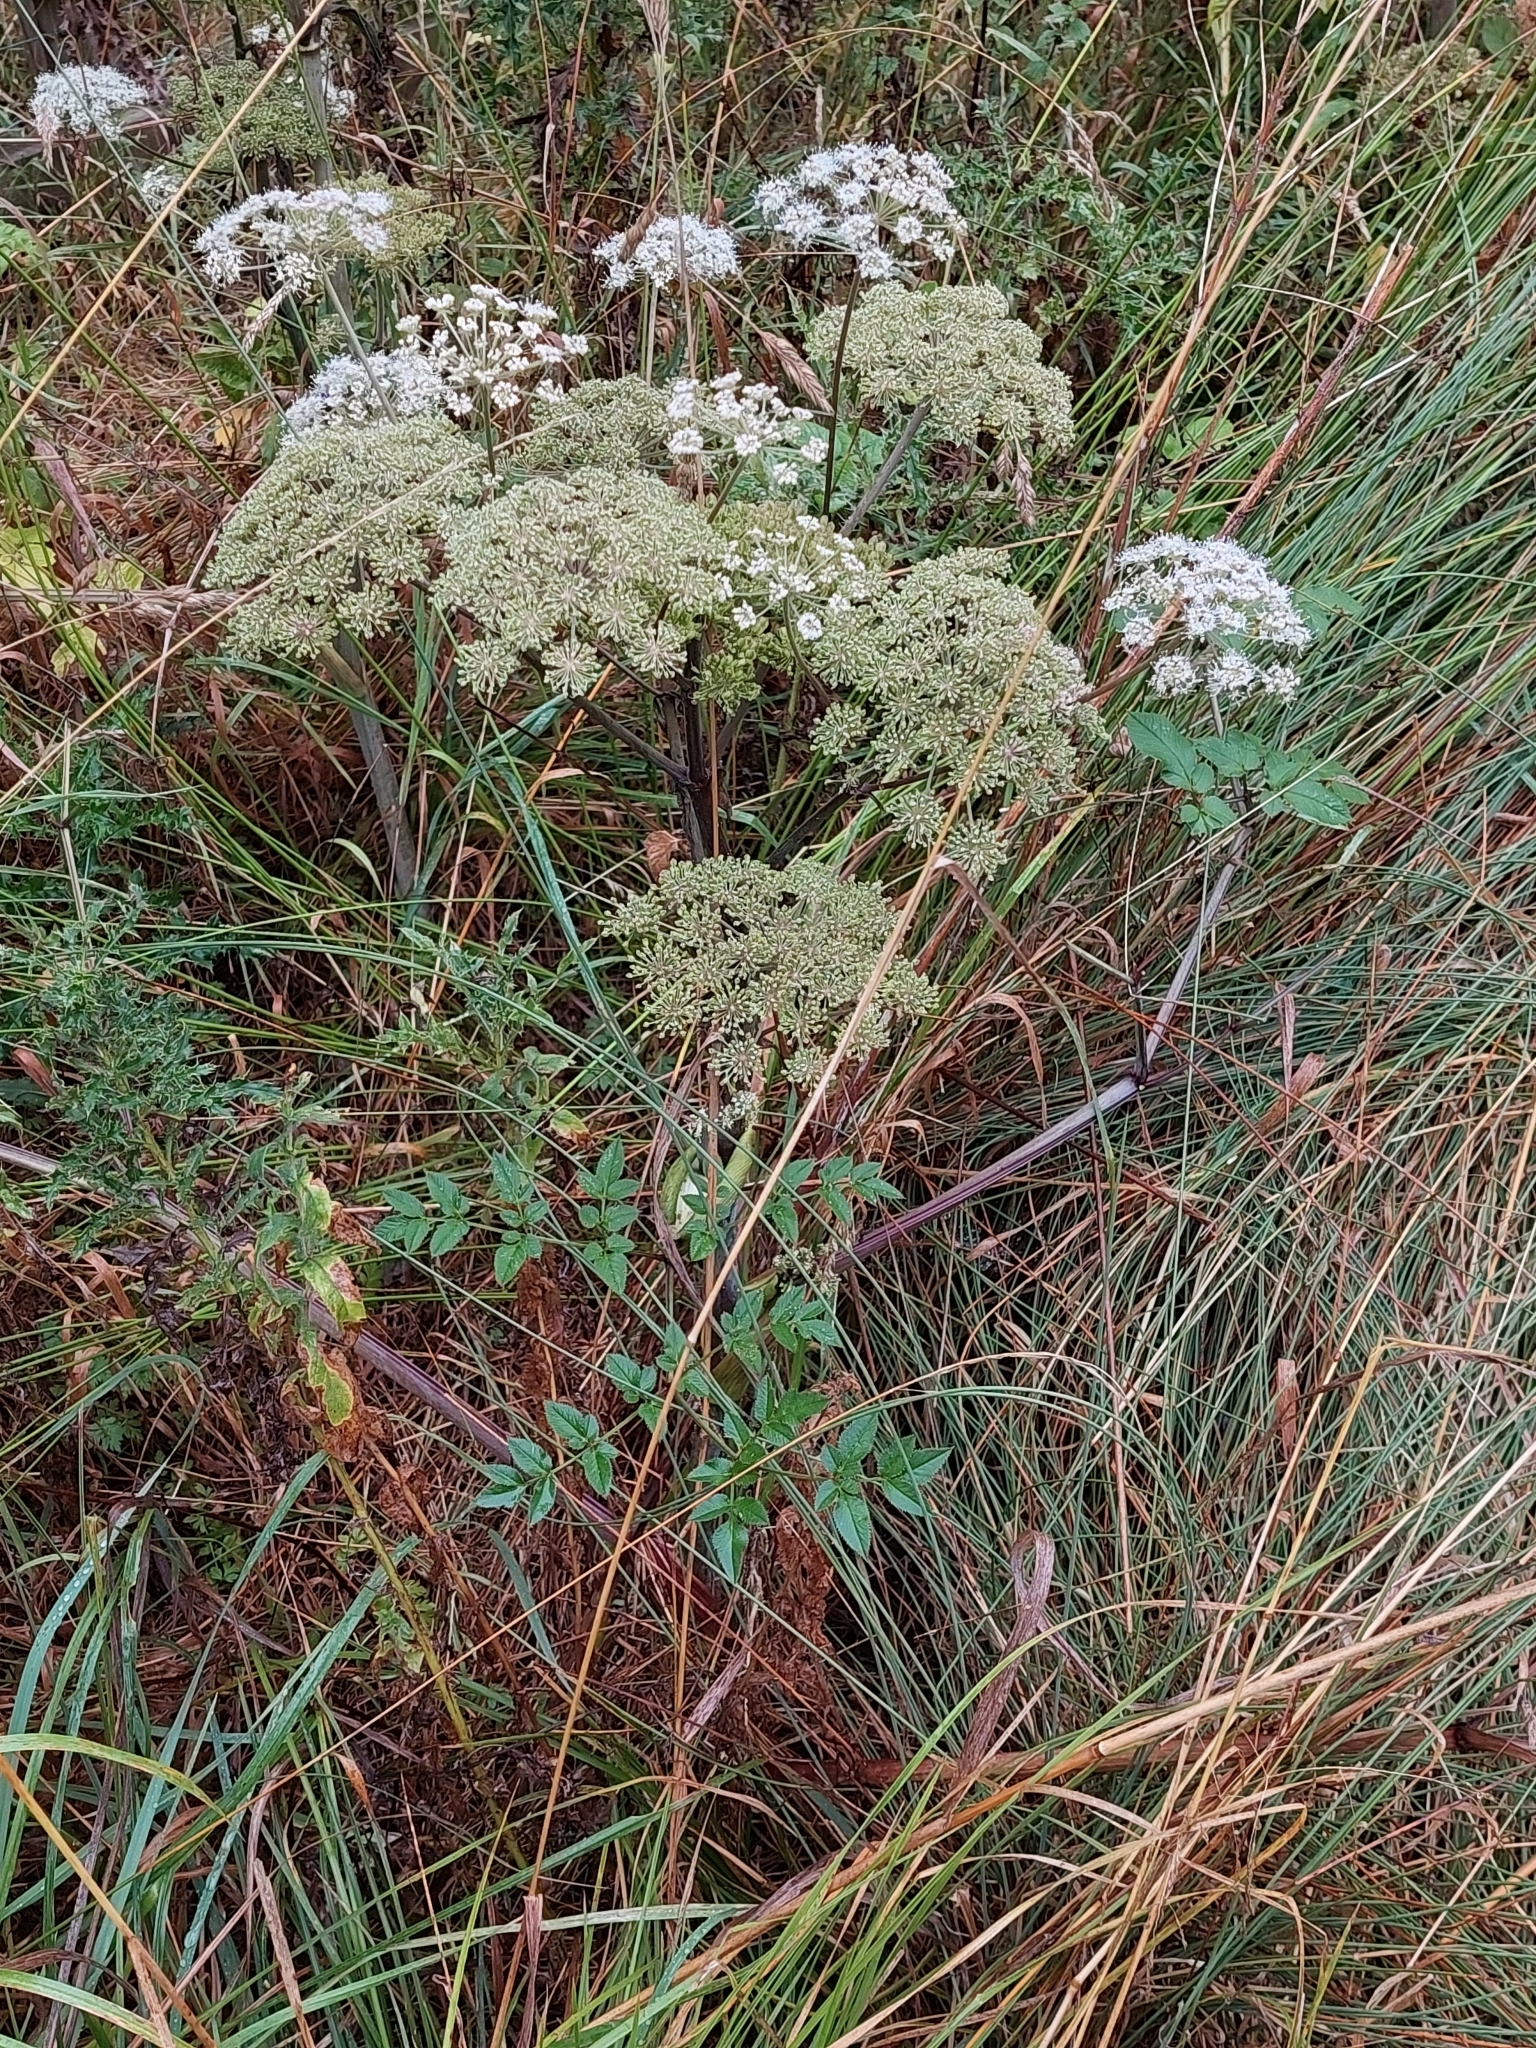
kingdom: Plantae
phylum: Tracheophyta
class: Magnoliopsida
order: Apiales
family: Apiaceae
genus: Angelica
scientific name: Angelica sylvestris
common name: Wild angelica
